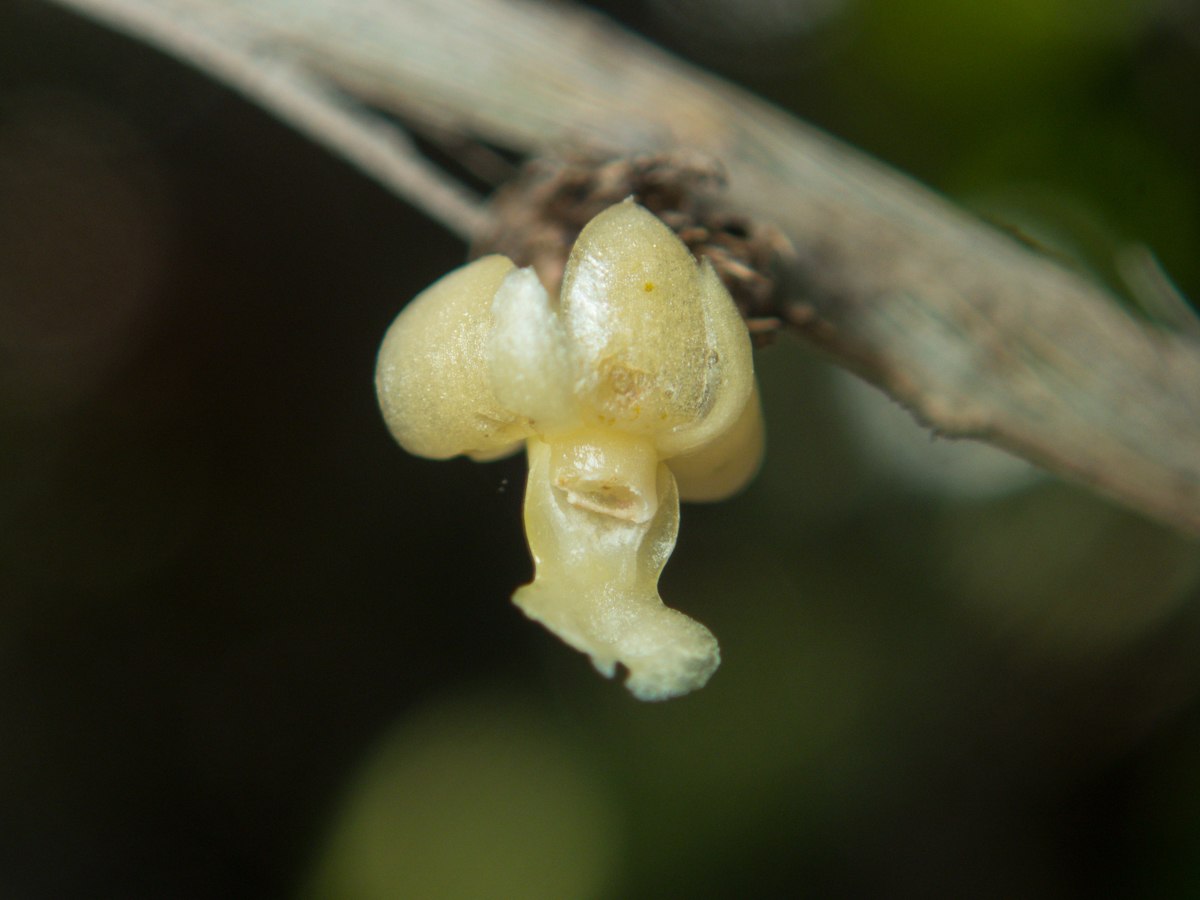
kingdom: Plantae
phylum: Tracheophyta
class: Liliopsida
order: Asparagales
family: Orchidaceae
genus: Dendrobium
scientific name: Dendrobium aloifolium
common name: Aloe-like dendrobium
